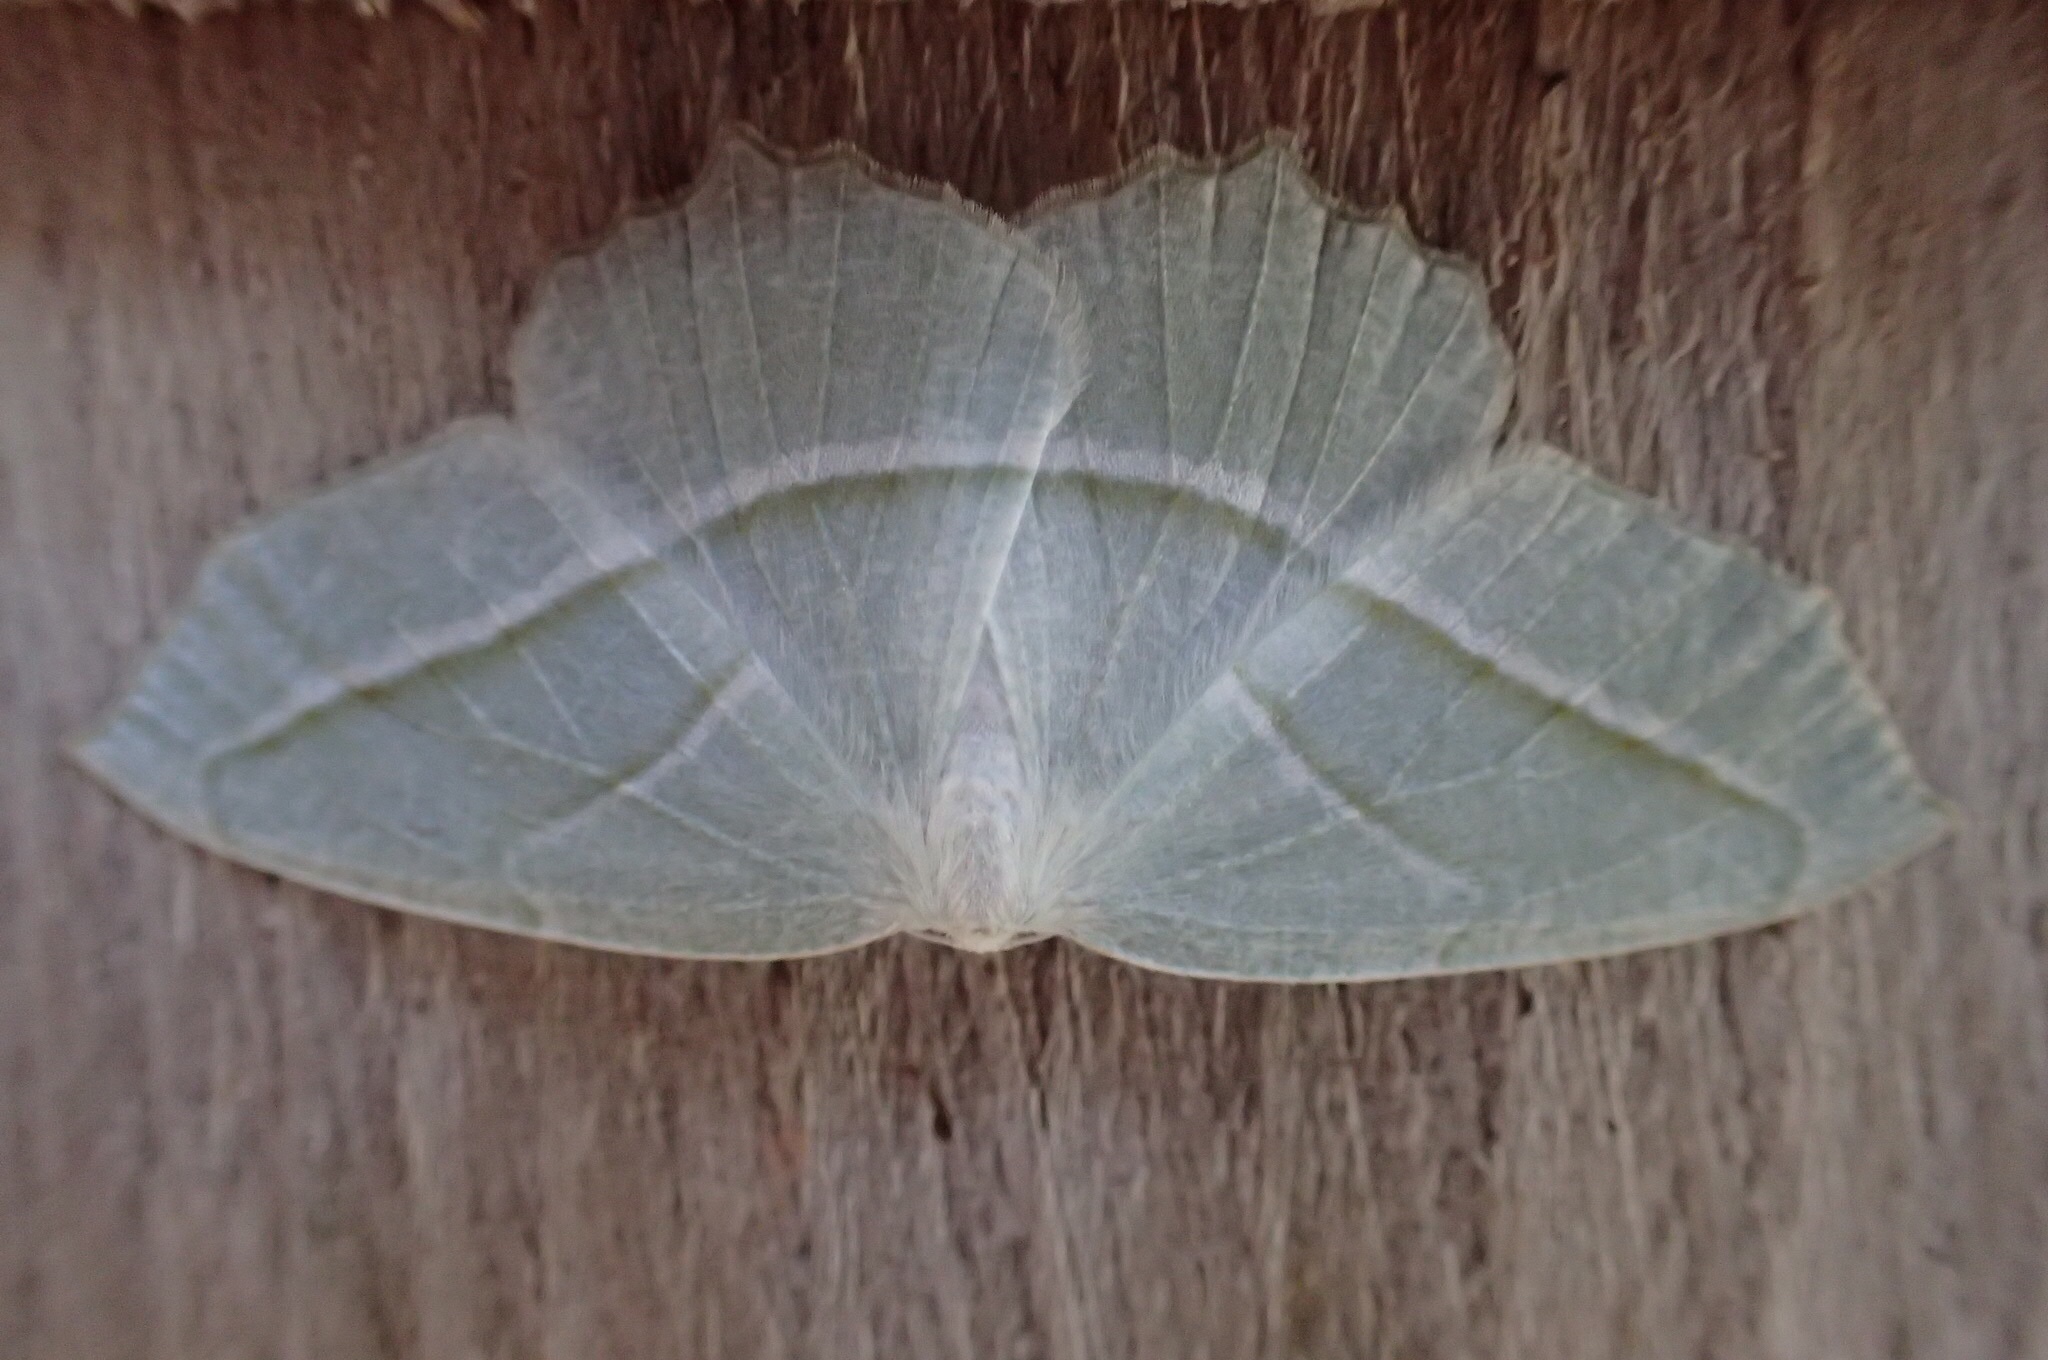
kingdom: Animalia
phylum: Arthropoda
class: Insecta
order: Lepidoptera
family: Geometridae
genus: Campaea
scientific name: Campaea perlata
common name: Fringed looper
